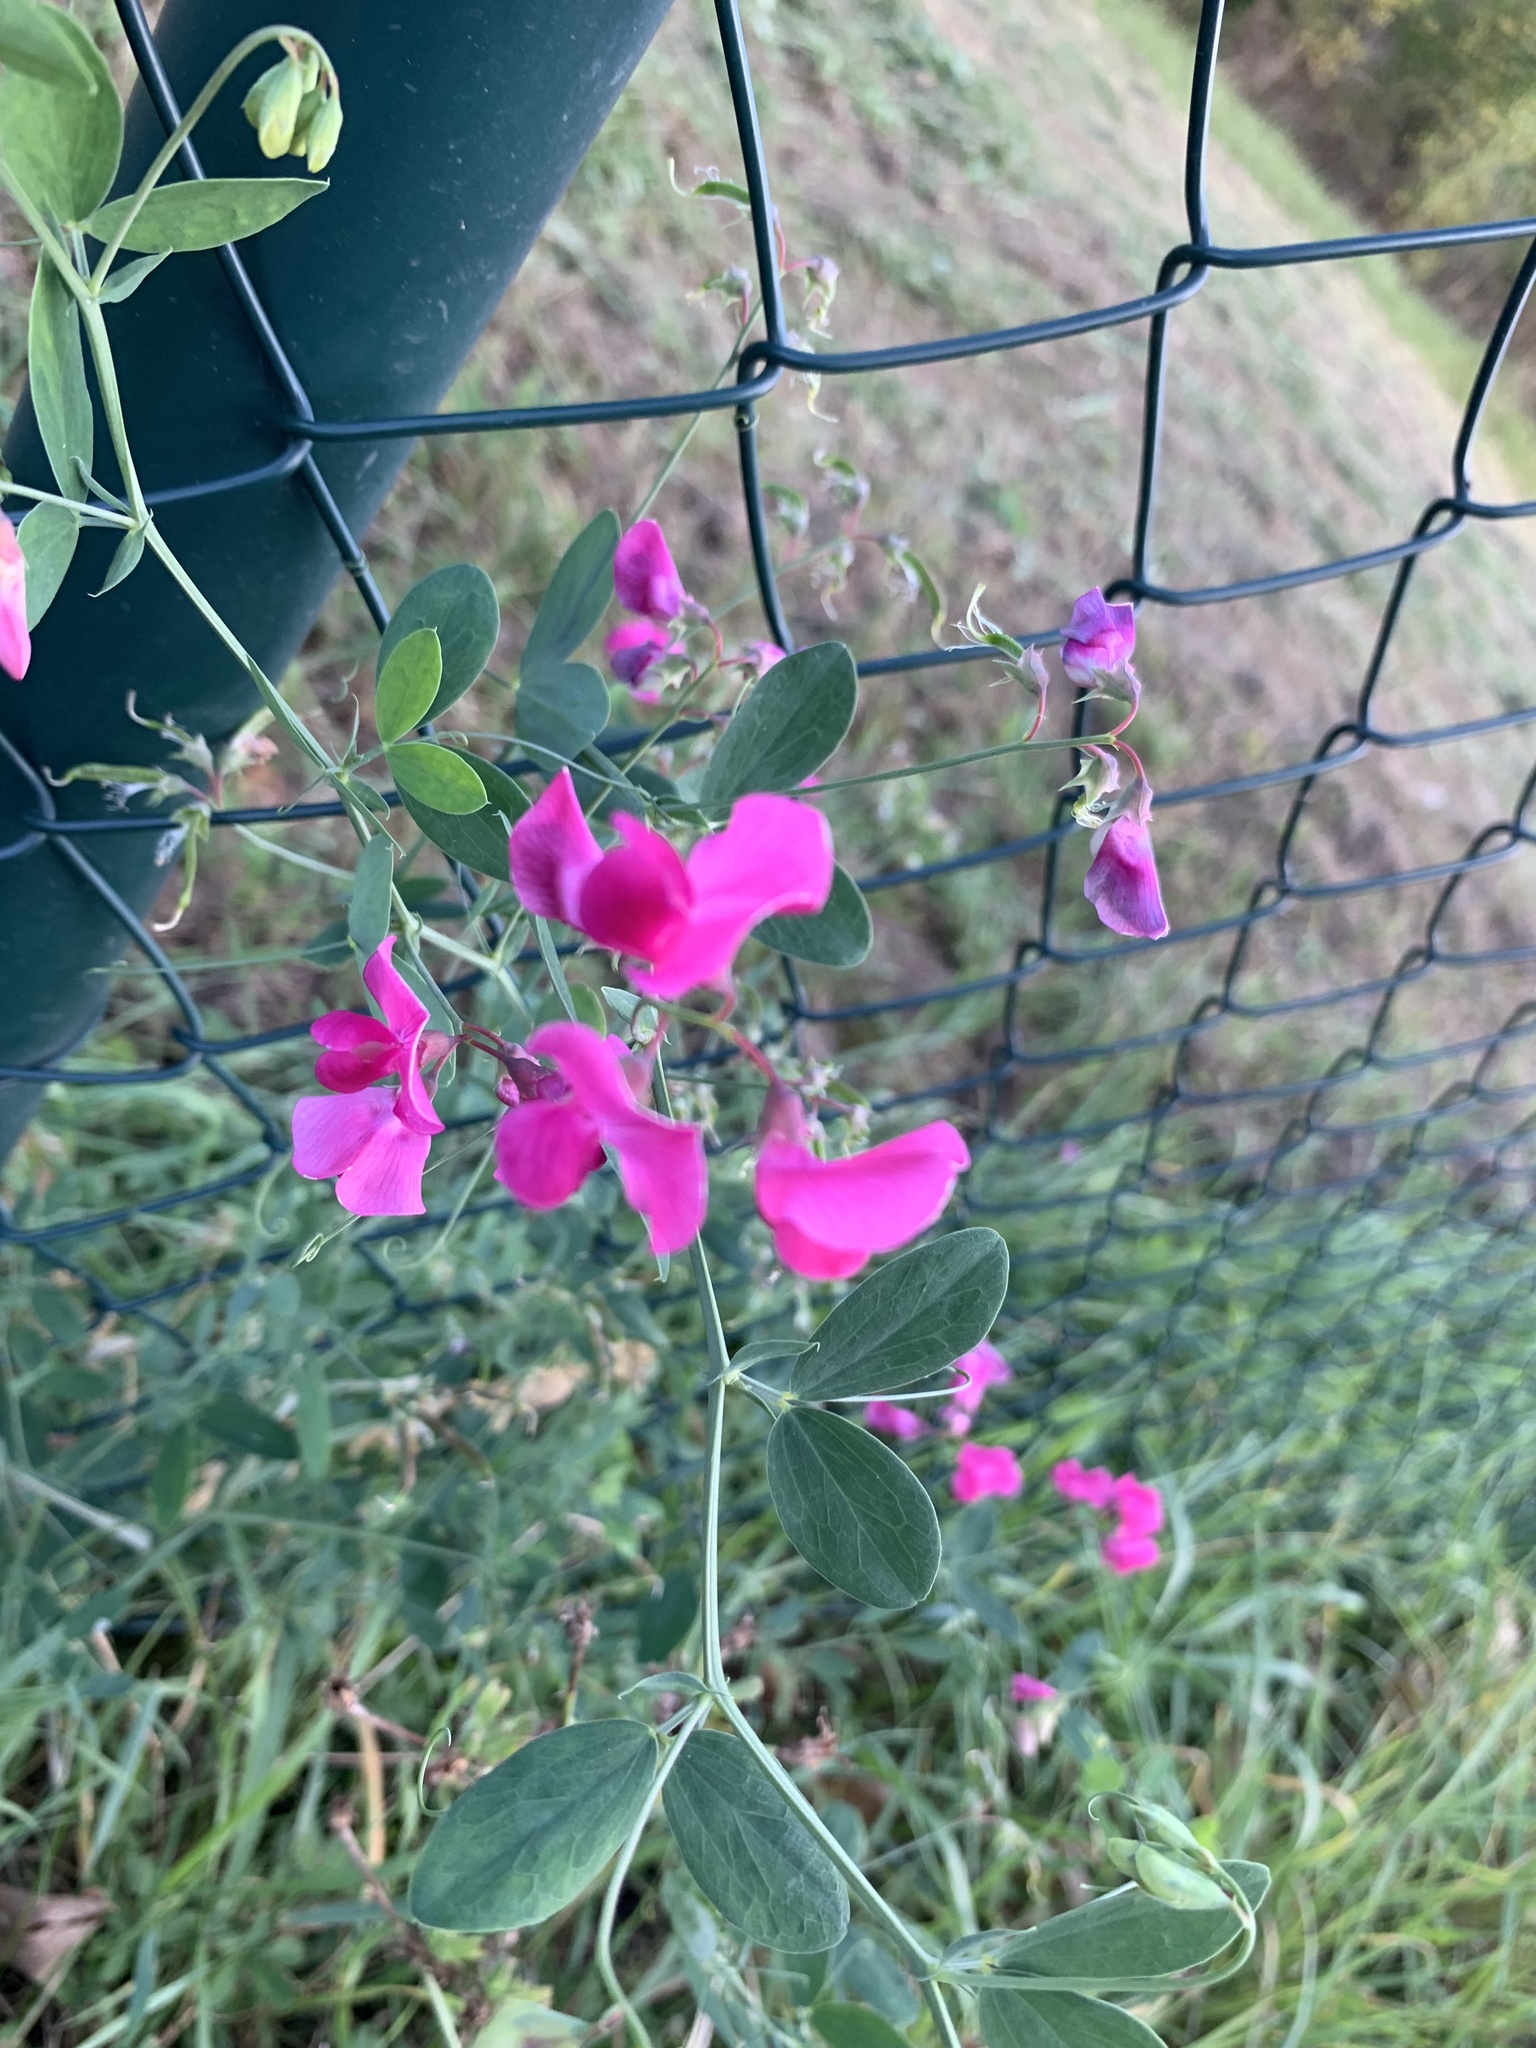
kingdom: Plantae
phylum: Tracheophyta
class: Magnoliopsida
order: Fabales
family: Fabaceae
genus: Lathyrus
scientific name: Lathyrus tuberosus
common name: Tuberous pea
